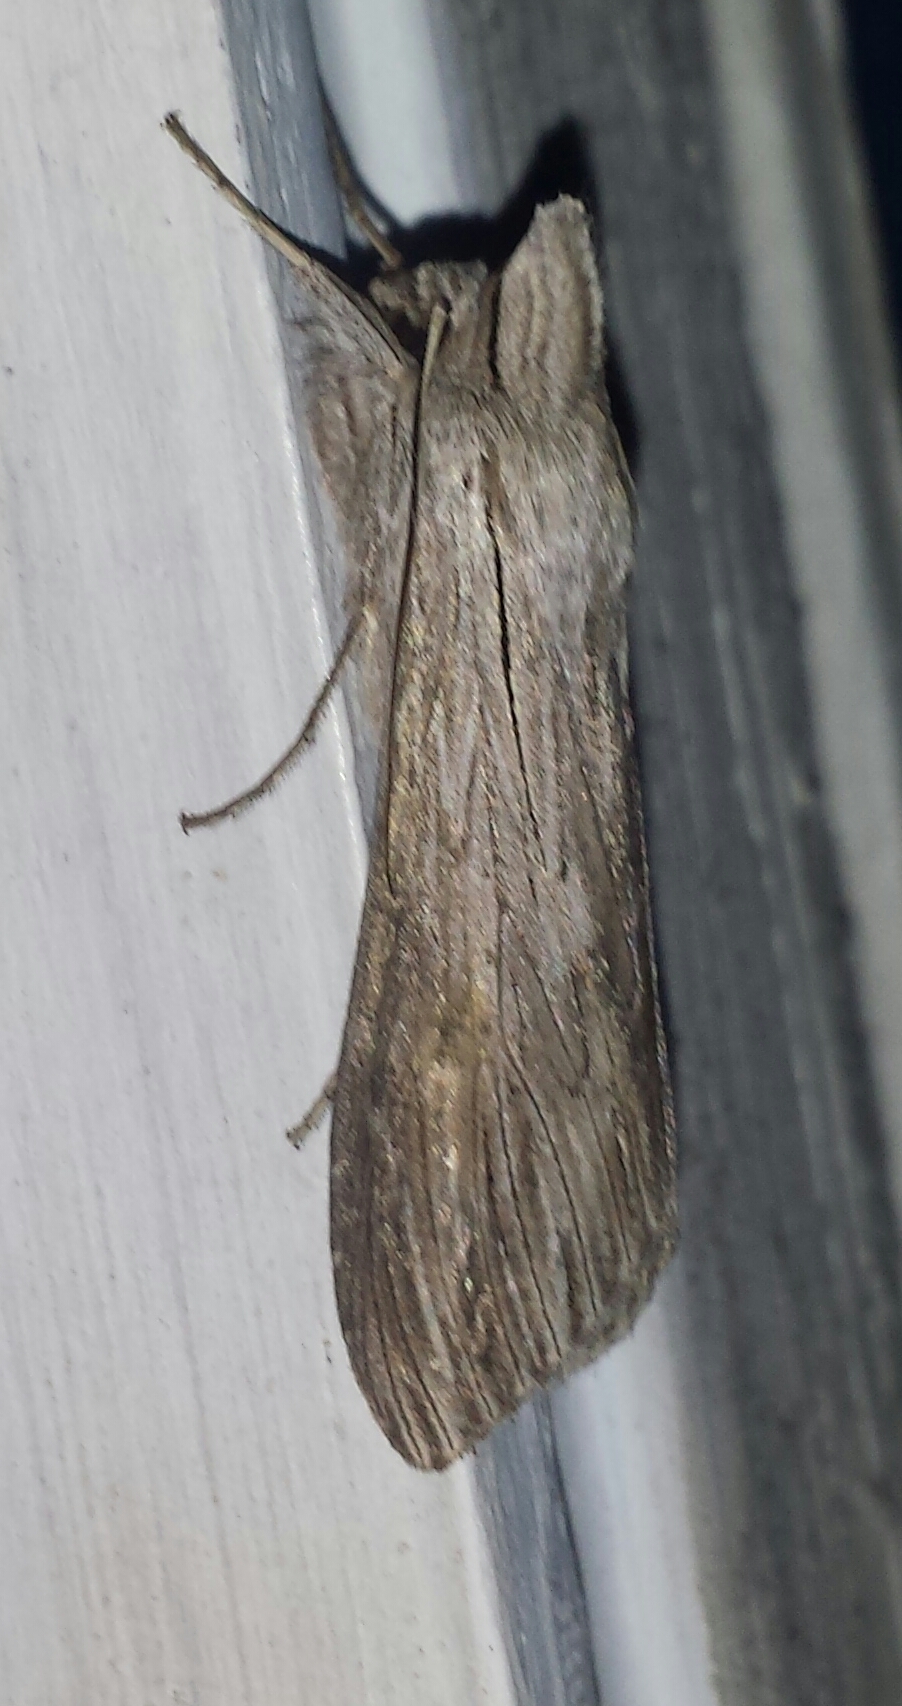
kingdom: Animalia
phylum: Arthropoda
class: Insecta
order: Lepidoptera
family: Noctuidae
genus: Cucullia
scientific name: Cucullia intermedia
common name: Goldenrod cutworm
